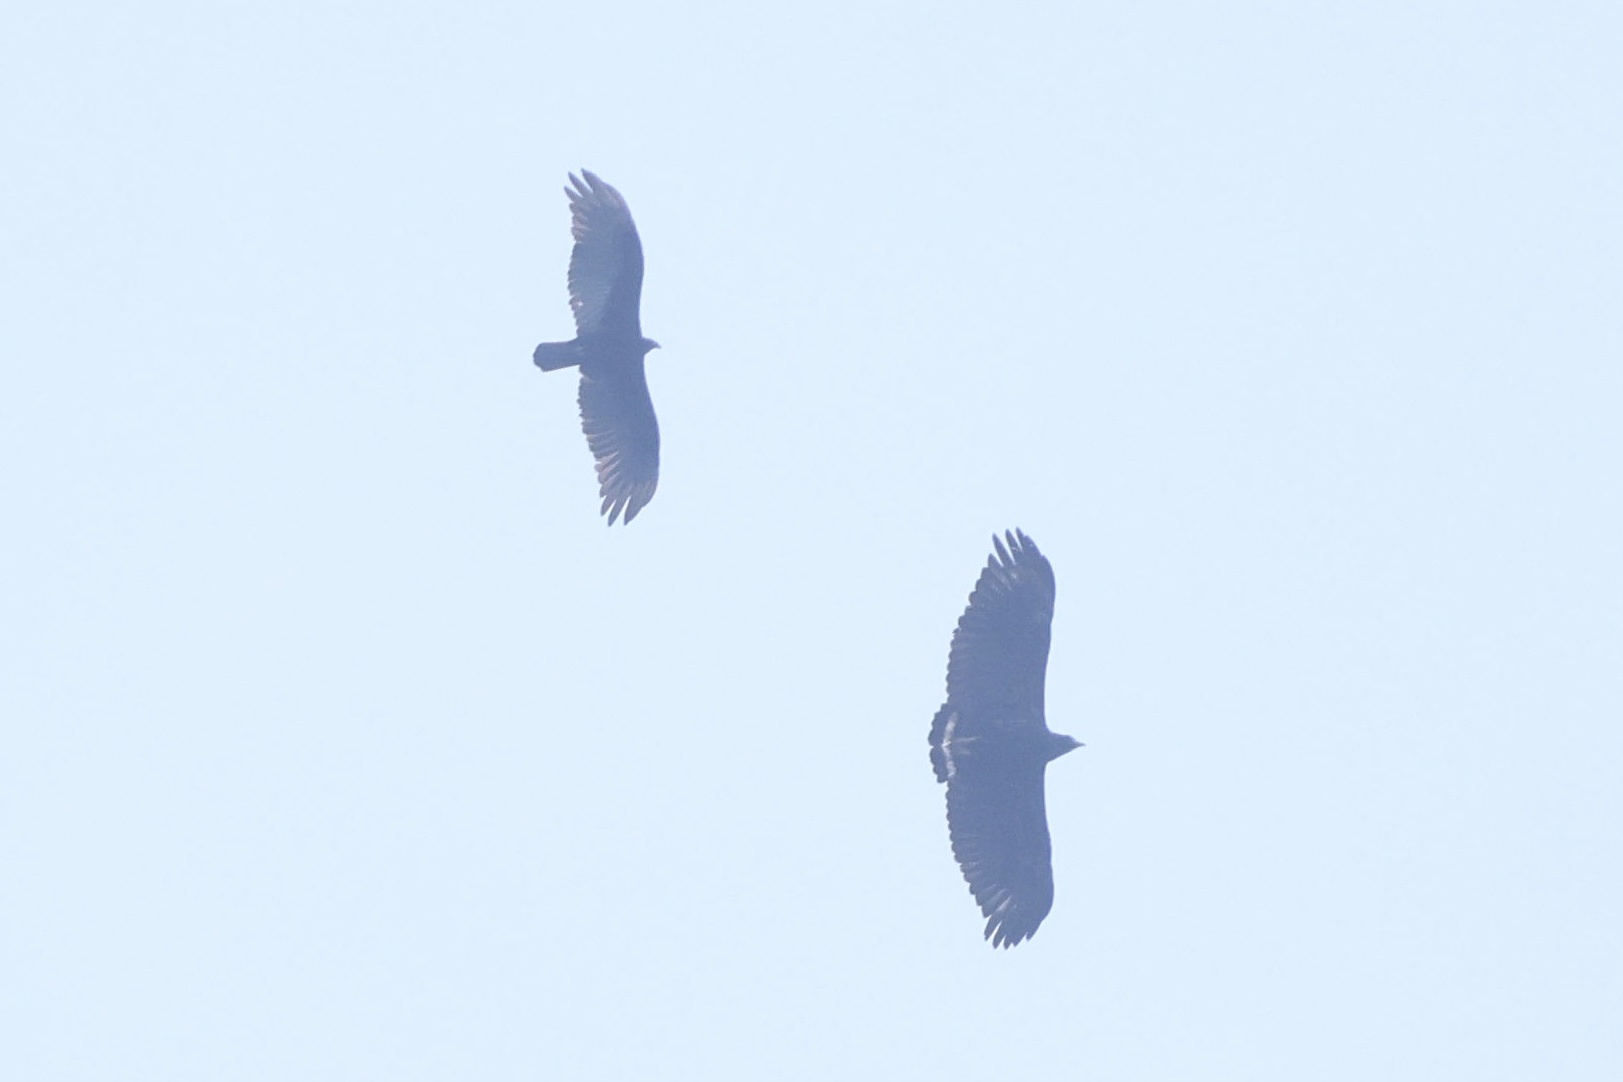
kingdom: Animalia
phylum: Chordata
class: Aves
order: Accipitriformes
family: Accipitridae
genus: Harpyhaliaetus
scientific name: Harpyhaliaetus solitarius
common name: Solitary eagle
